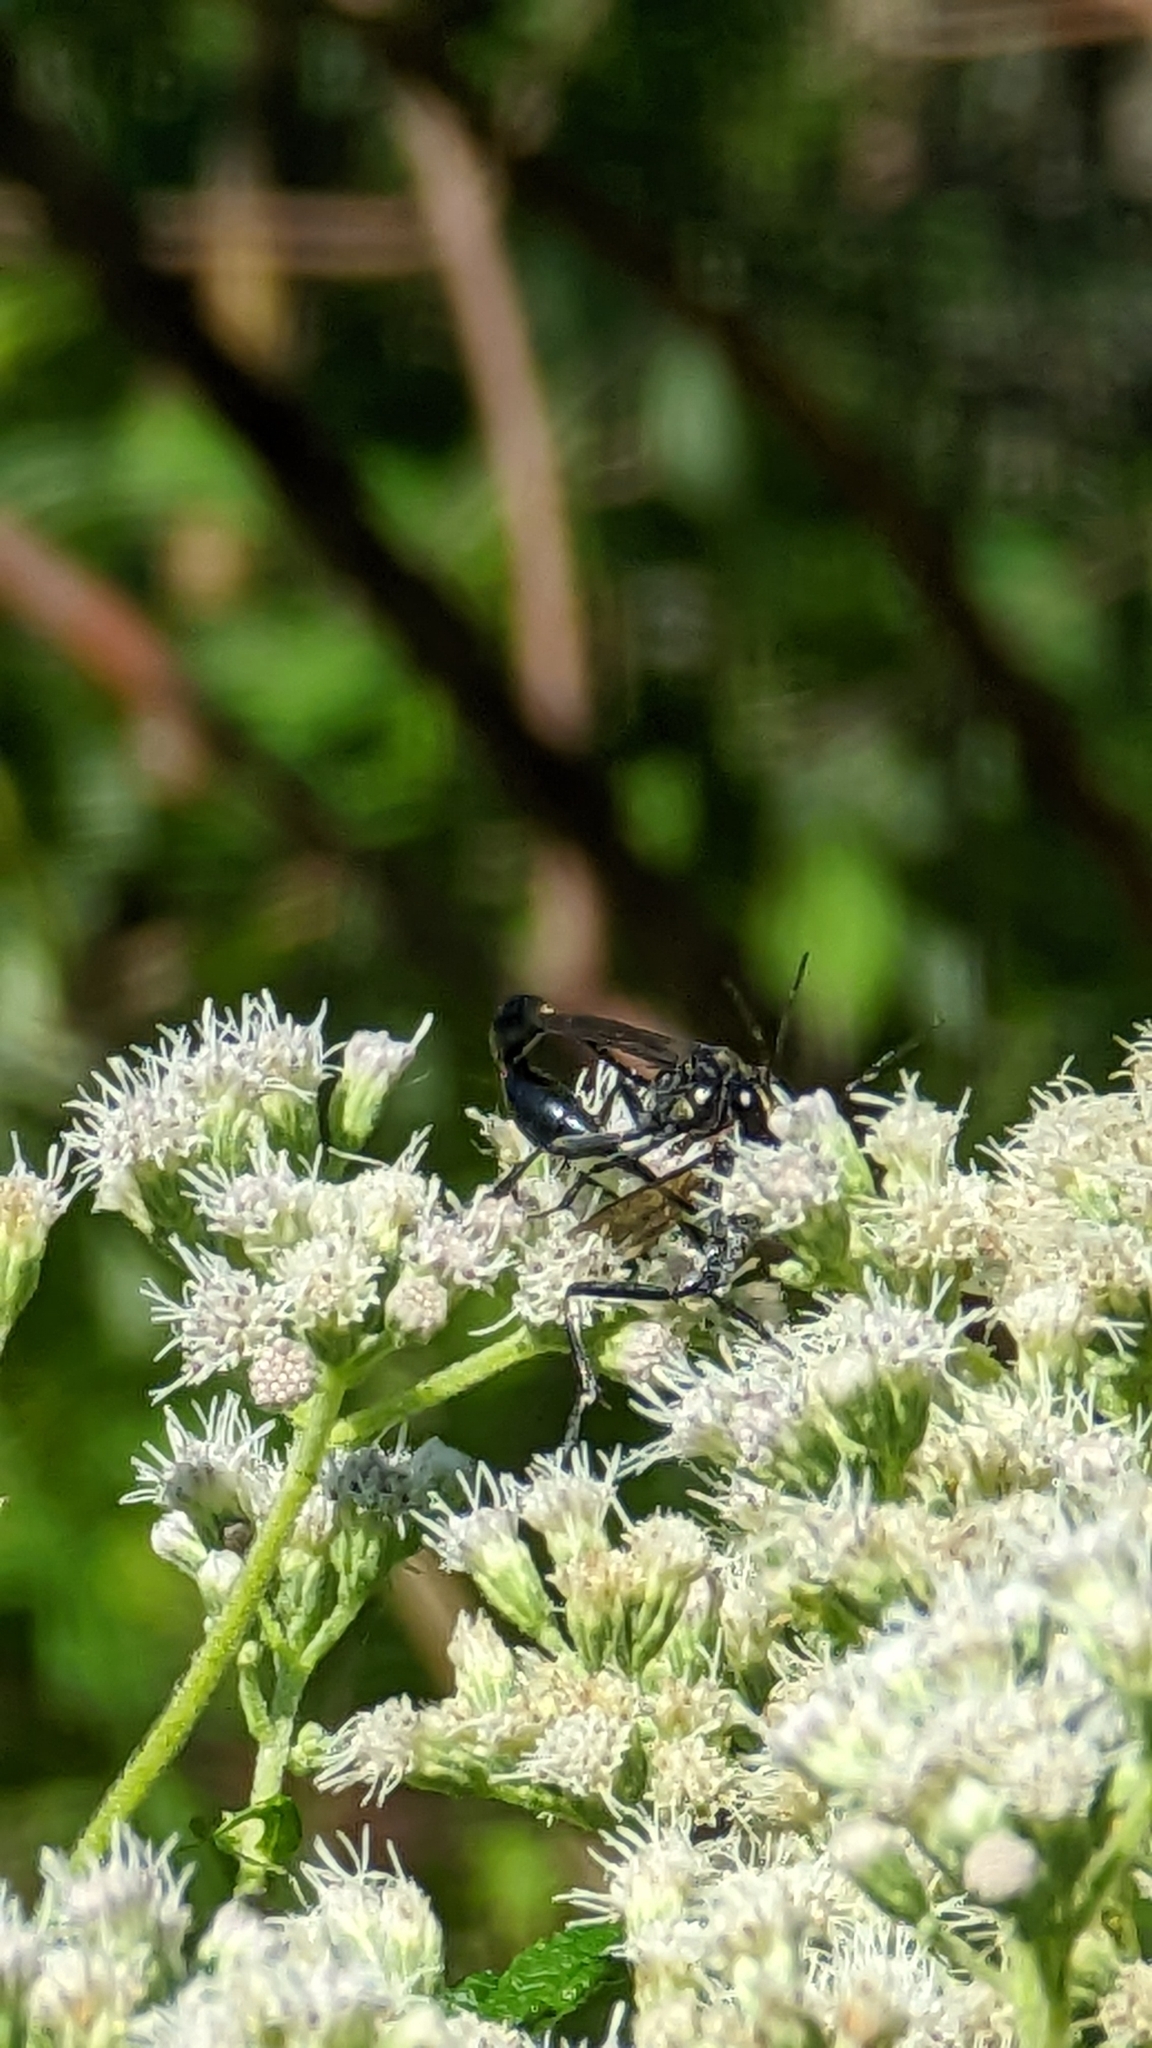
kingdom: Animalia
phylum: Arthropoda
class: Insecta
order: Hymenoptera
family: Sphecidae
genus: Eremnophila
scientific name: Eremnophila aureonotata
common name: Gold-marked thread-waisted wasp
